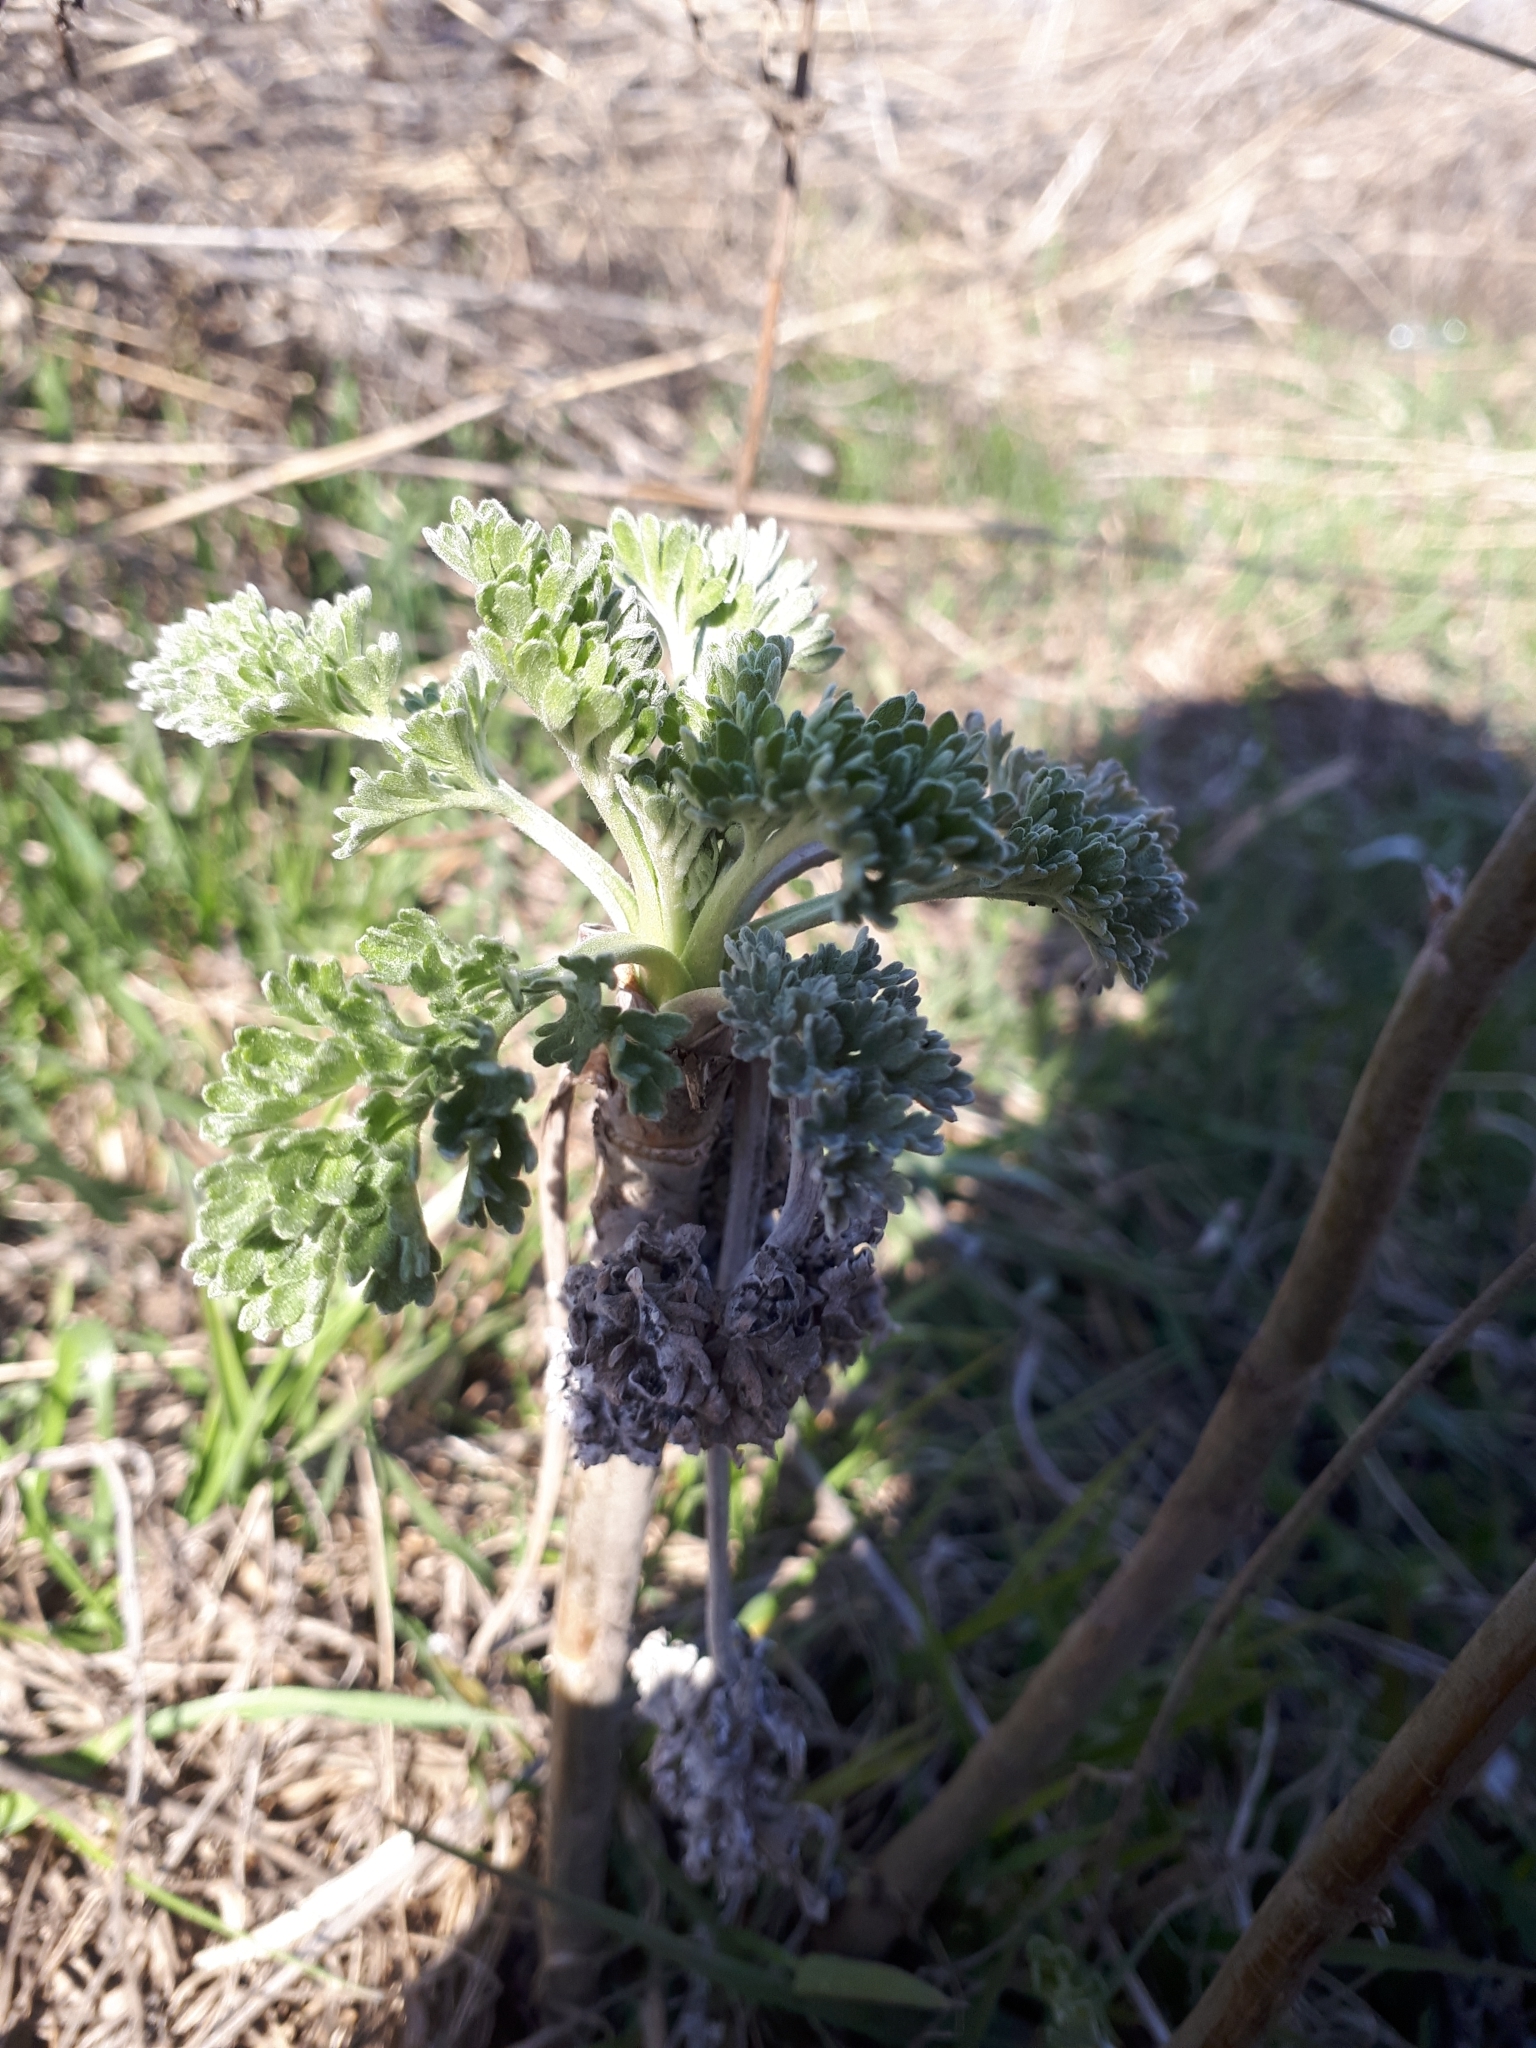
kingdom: Plantae
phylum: Tracheophyta
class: Magnoliopsida
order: Asterales
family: Asteraceae
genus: Artemisia
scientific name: Artemisia absinthium
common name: Wormwood
